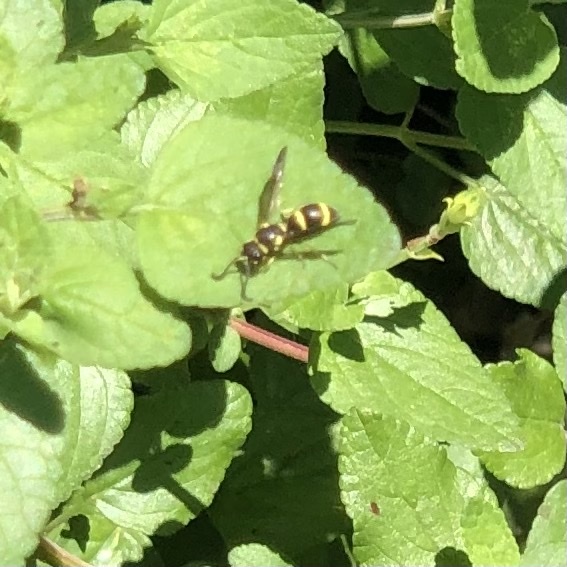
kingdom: Animalia
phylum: Arthropoda
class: Insecta
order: Hymenoptera
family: Eumenidae
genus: Parancistrocerus
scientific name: Parancistrocerus declivatus
